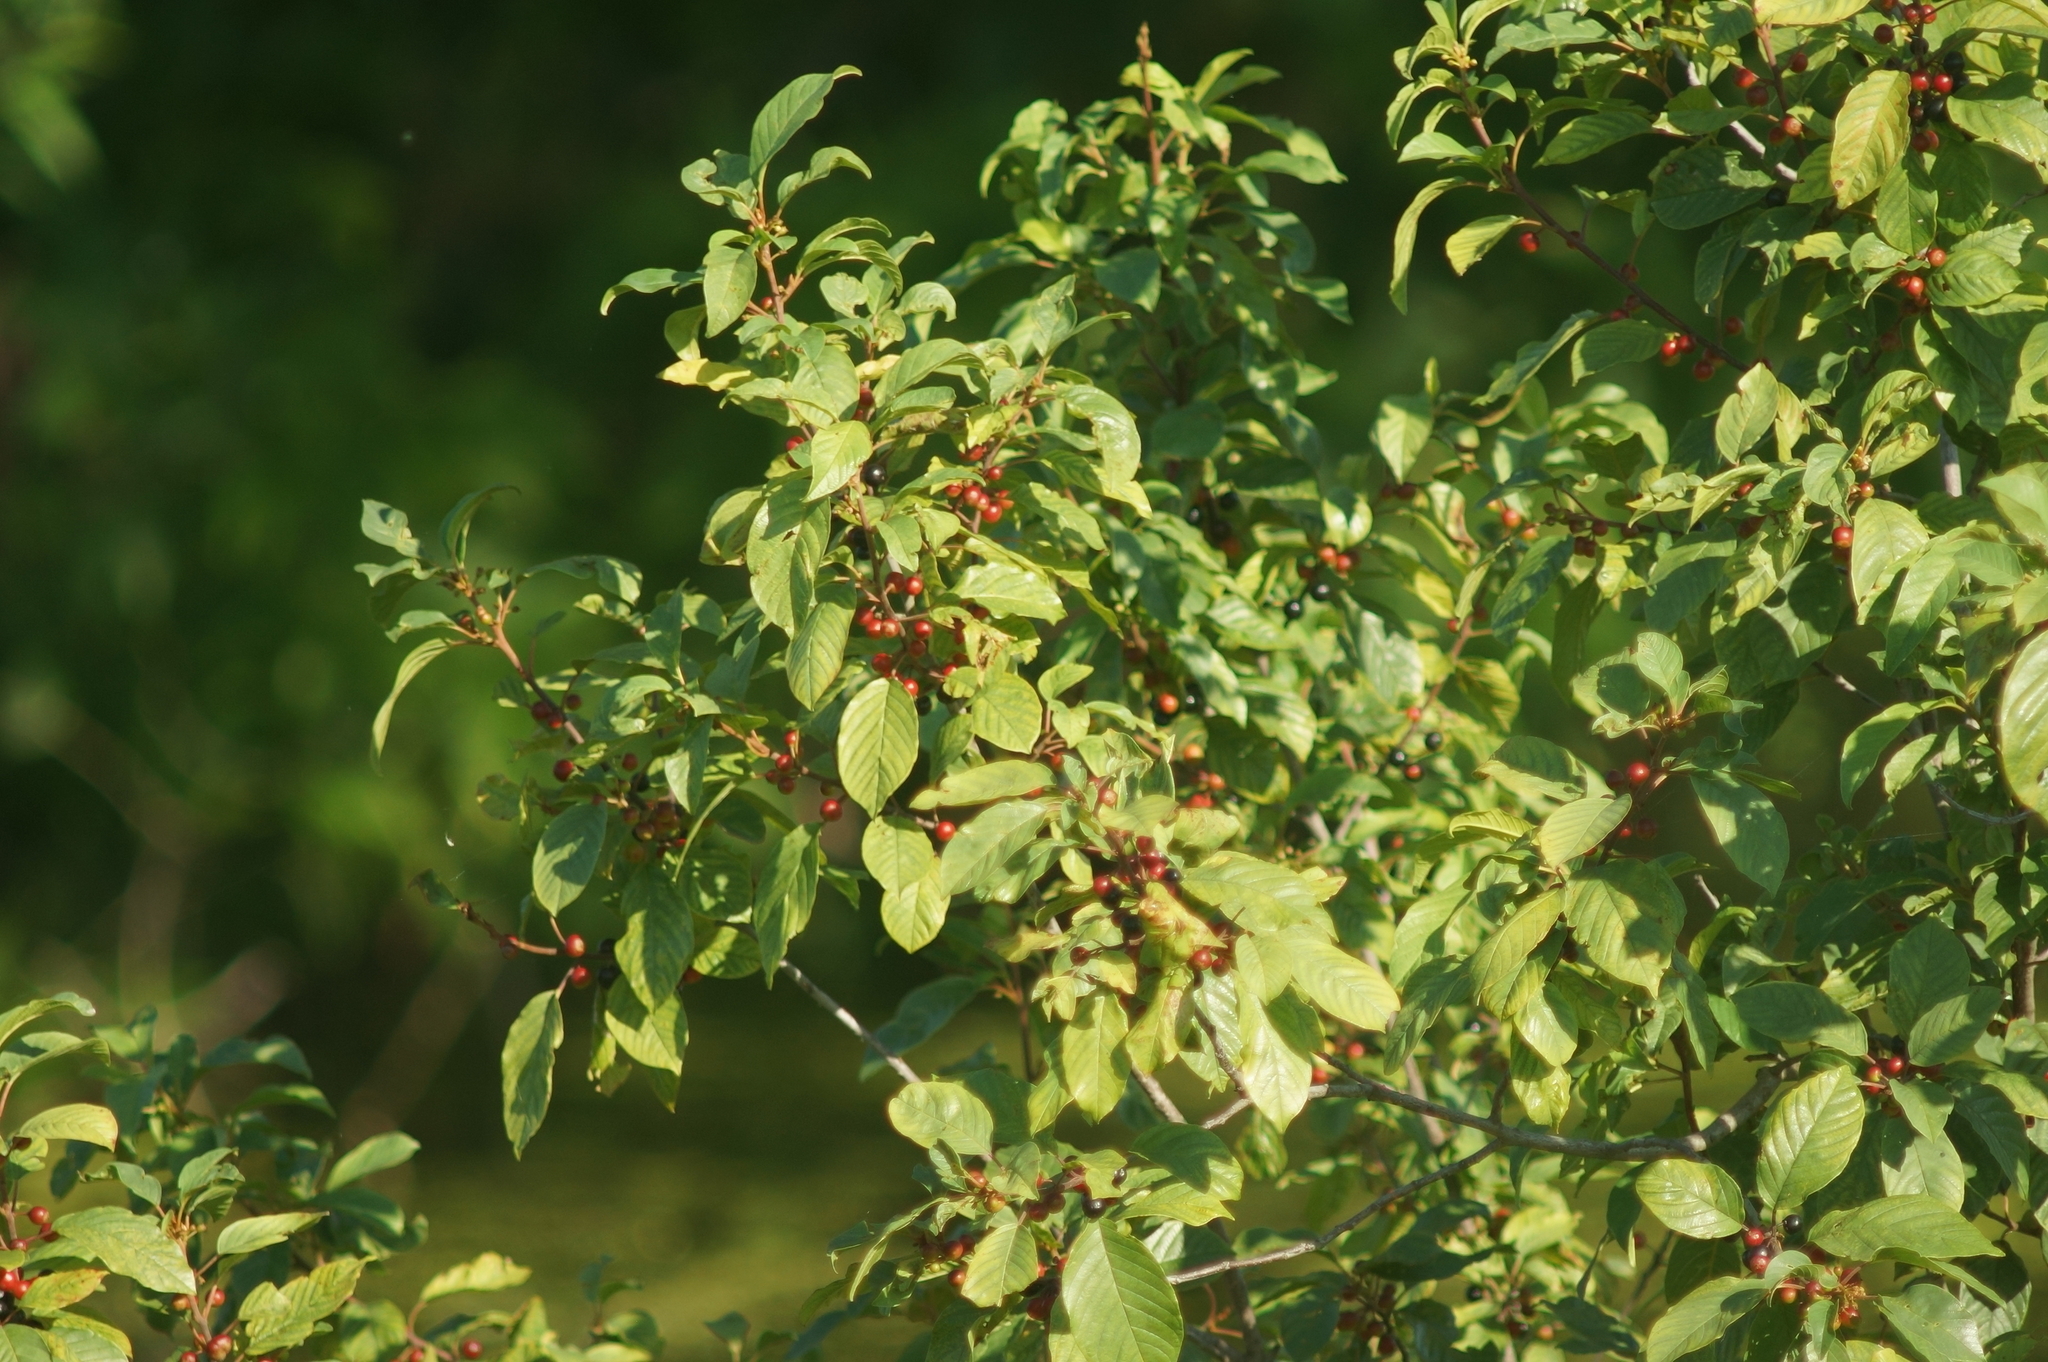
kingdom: Plantae
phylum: Tracheophyta
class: Magnoliopsida
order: Rosales
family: Rhamnaceae
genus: Frangula
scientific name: Frangula alnus
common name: Alder buckthorn
